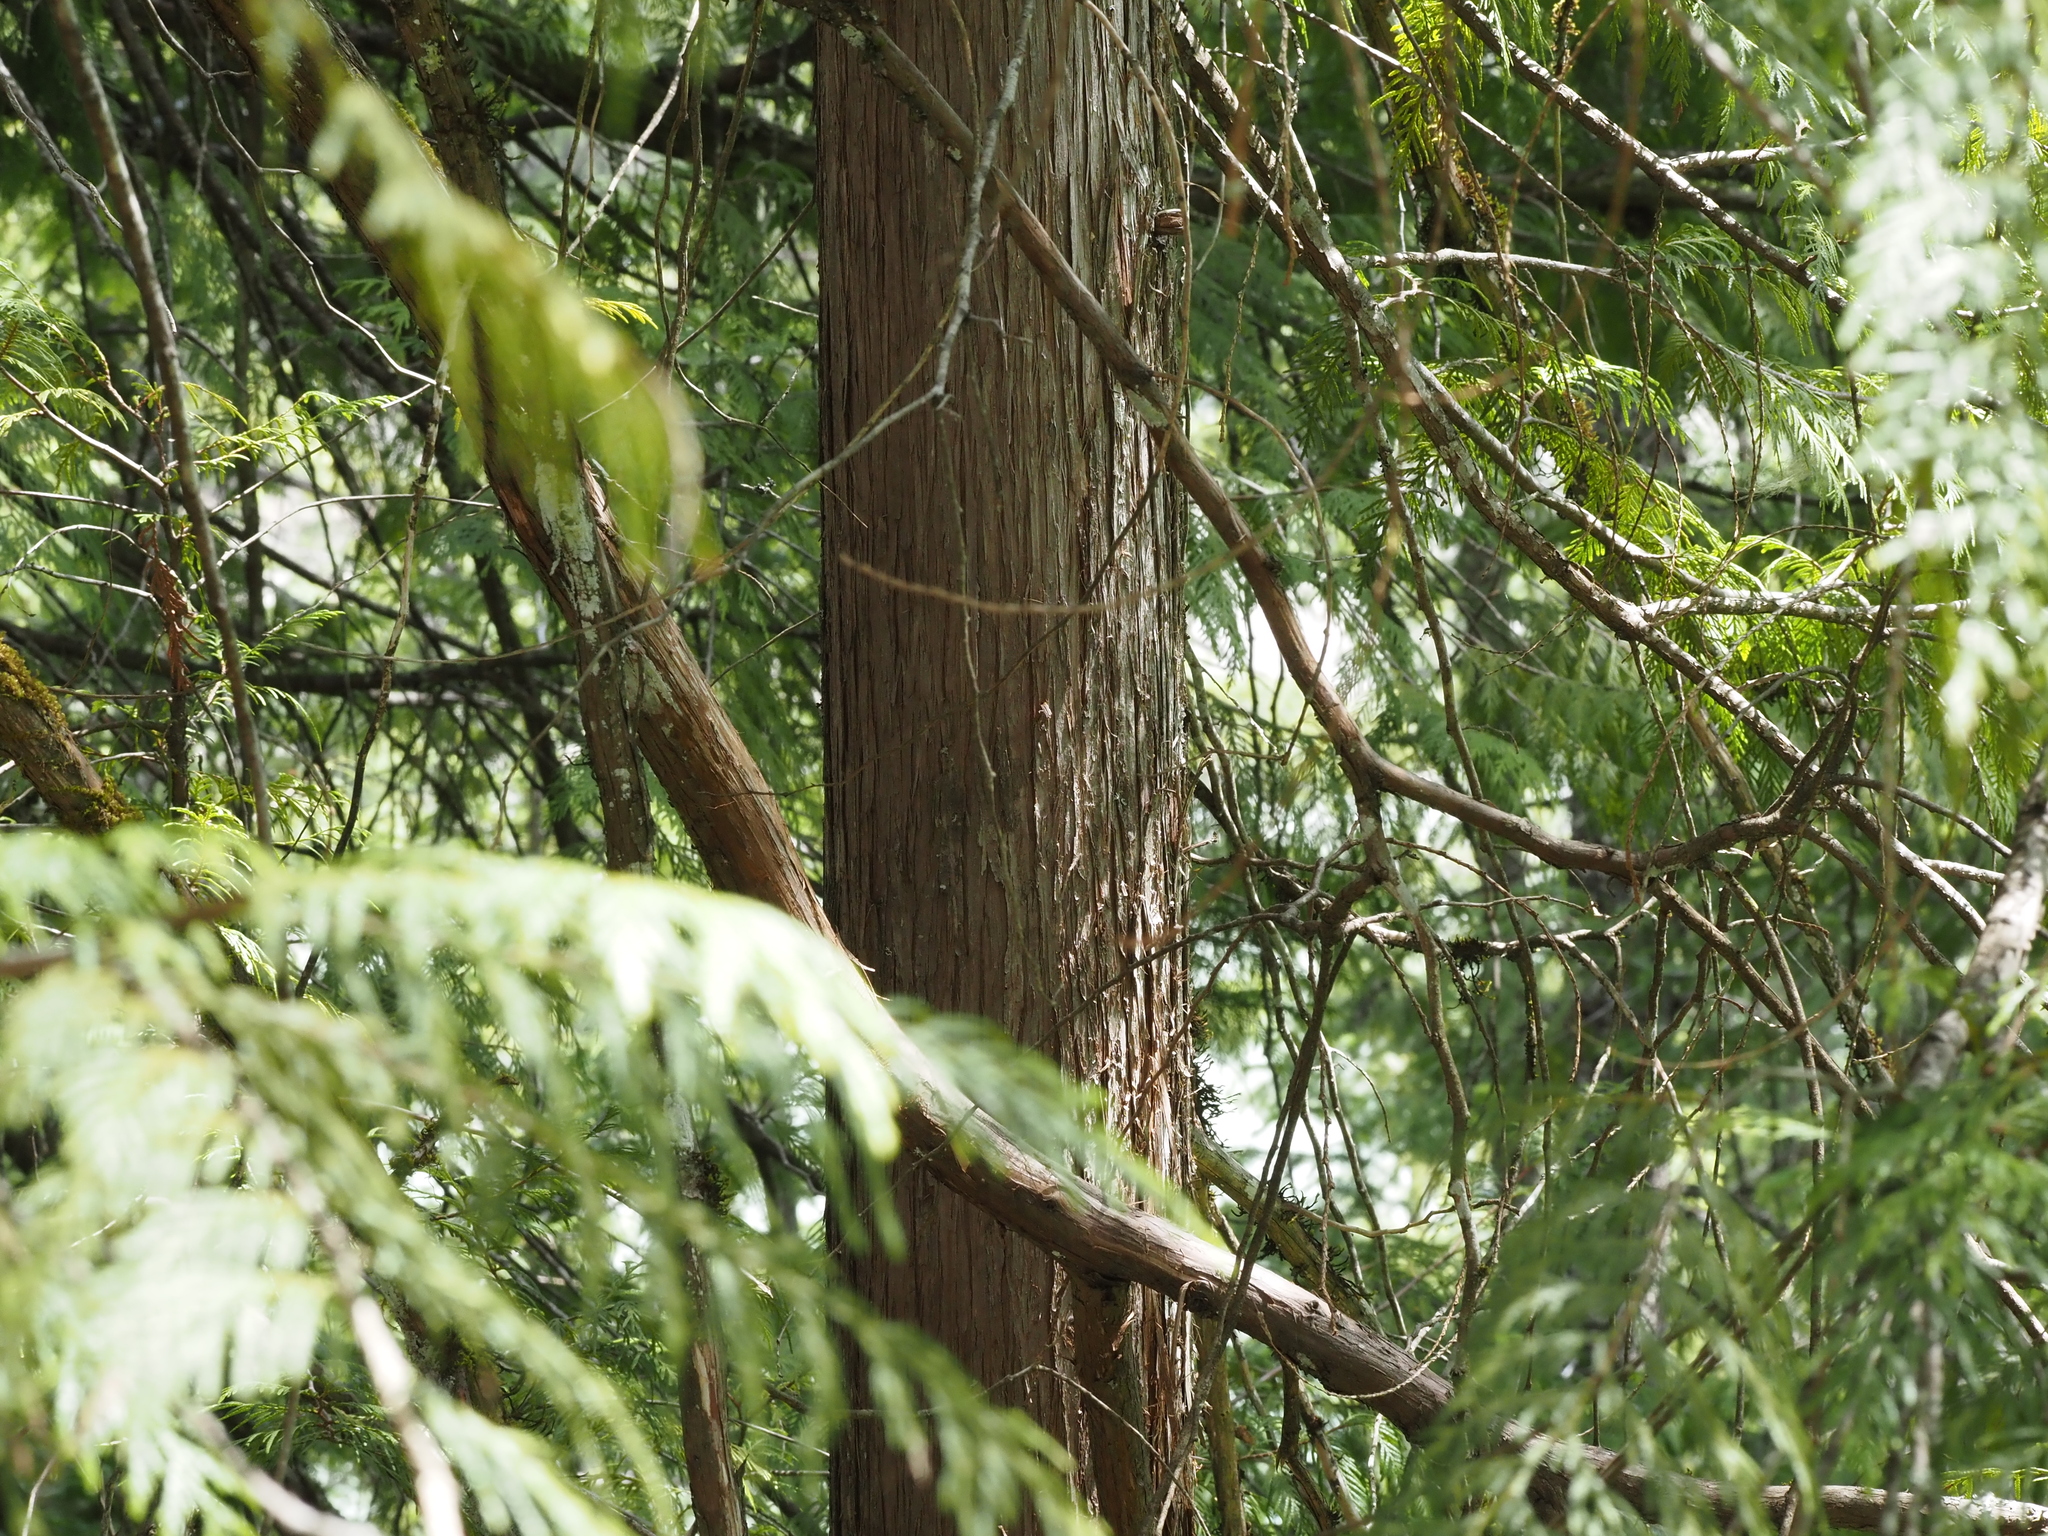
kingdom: Plantae
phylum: Tracheophyta
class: Pinopsida
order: Pinales
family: Cupressaceae
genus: Thuja
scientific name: Thuja plicata
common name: Western red-cedar
